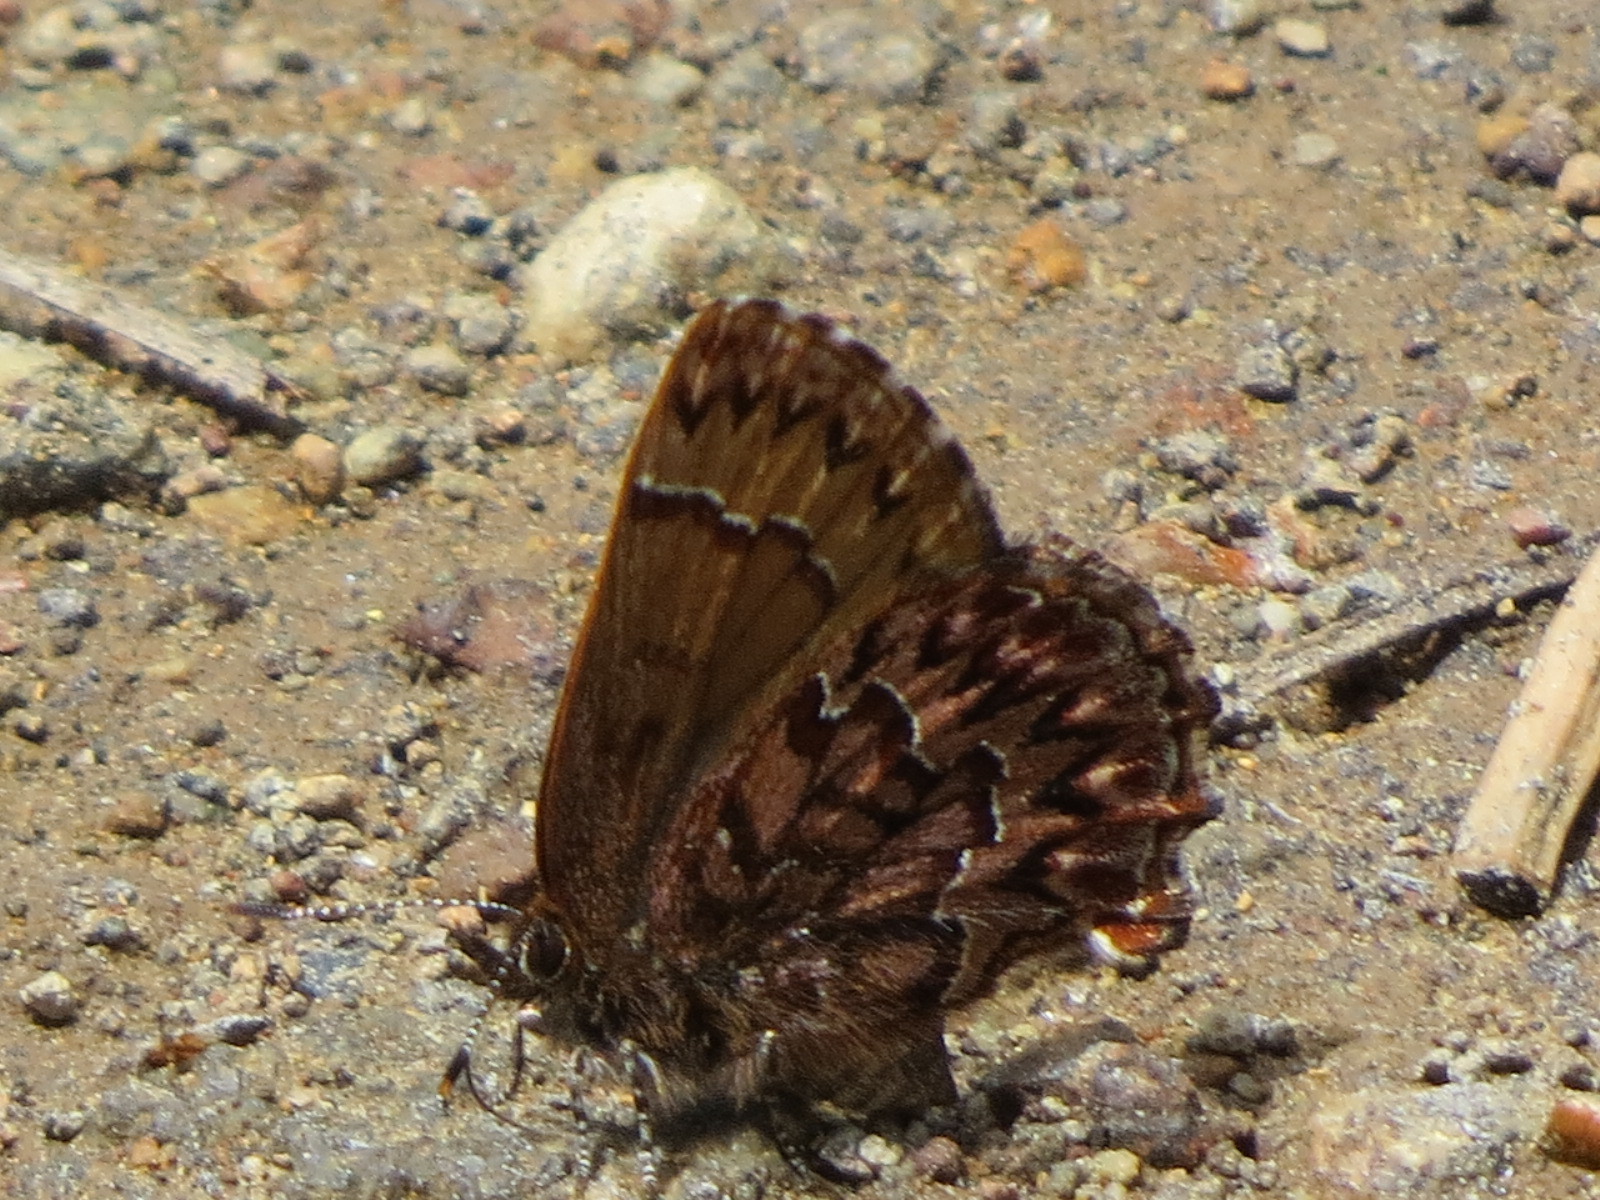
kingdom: Animalia
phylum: Arthropoda
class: Insecta
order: Lepidoptera
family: Lycaenidae
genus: Incisalia
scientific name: Incisalia eryphon
